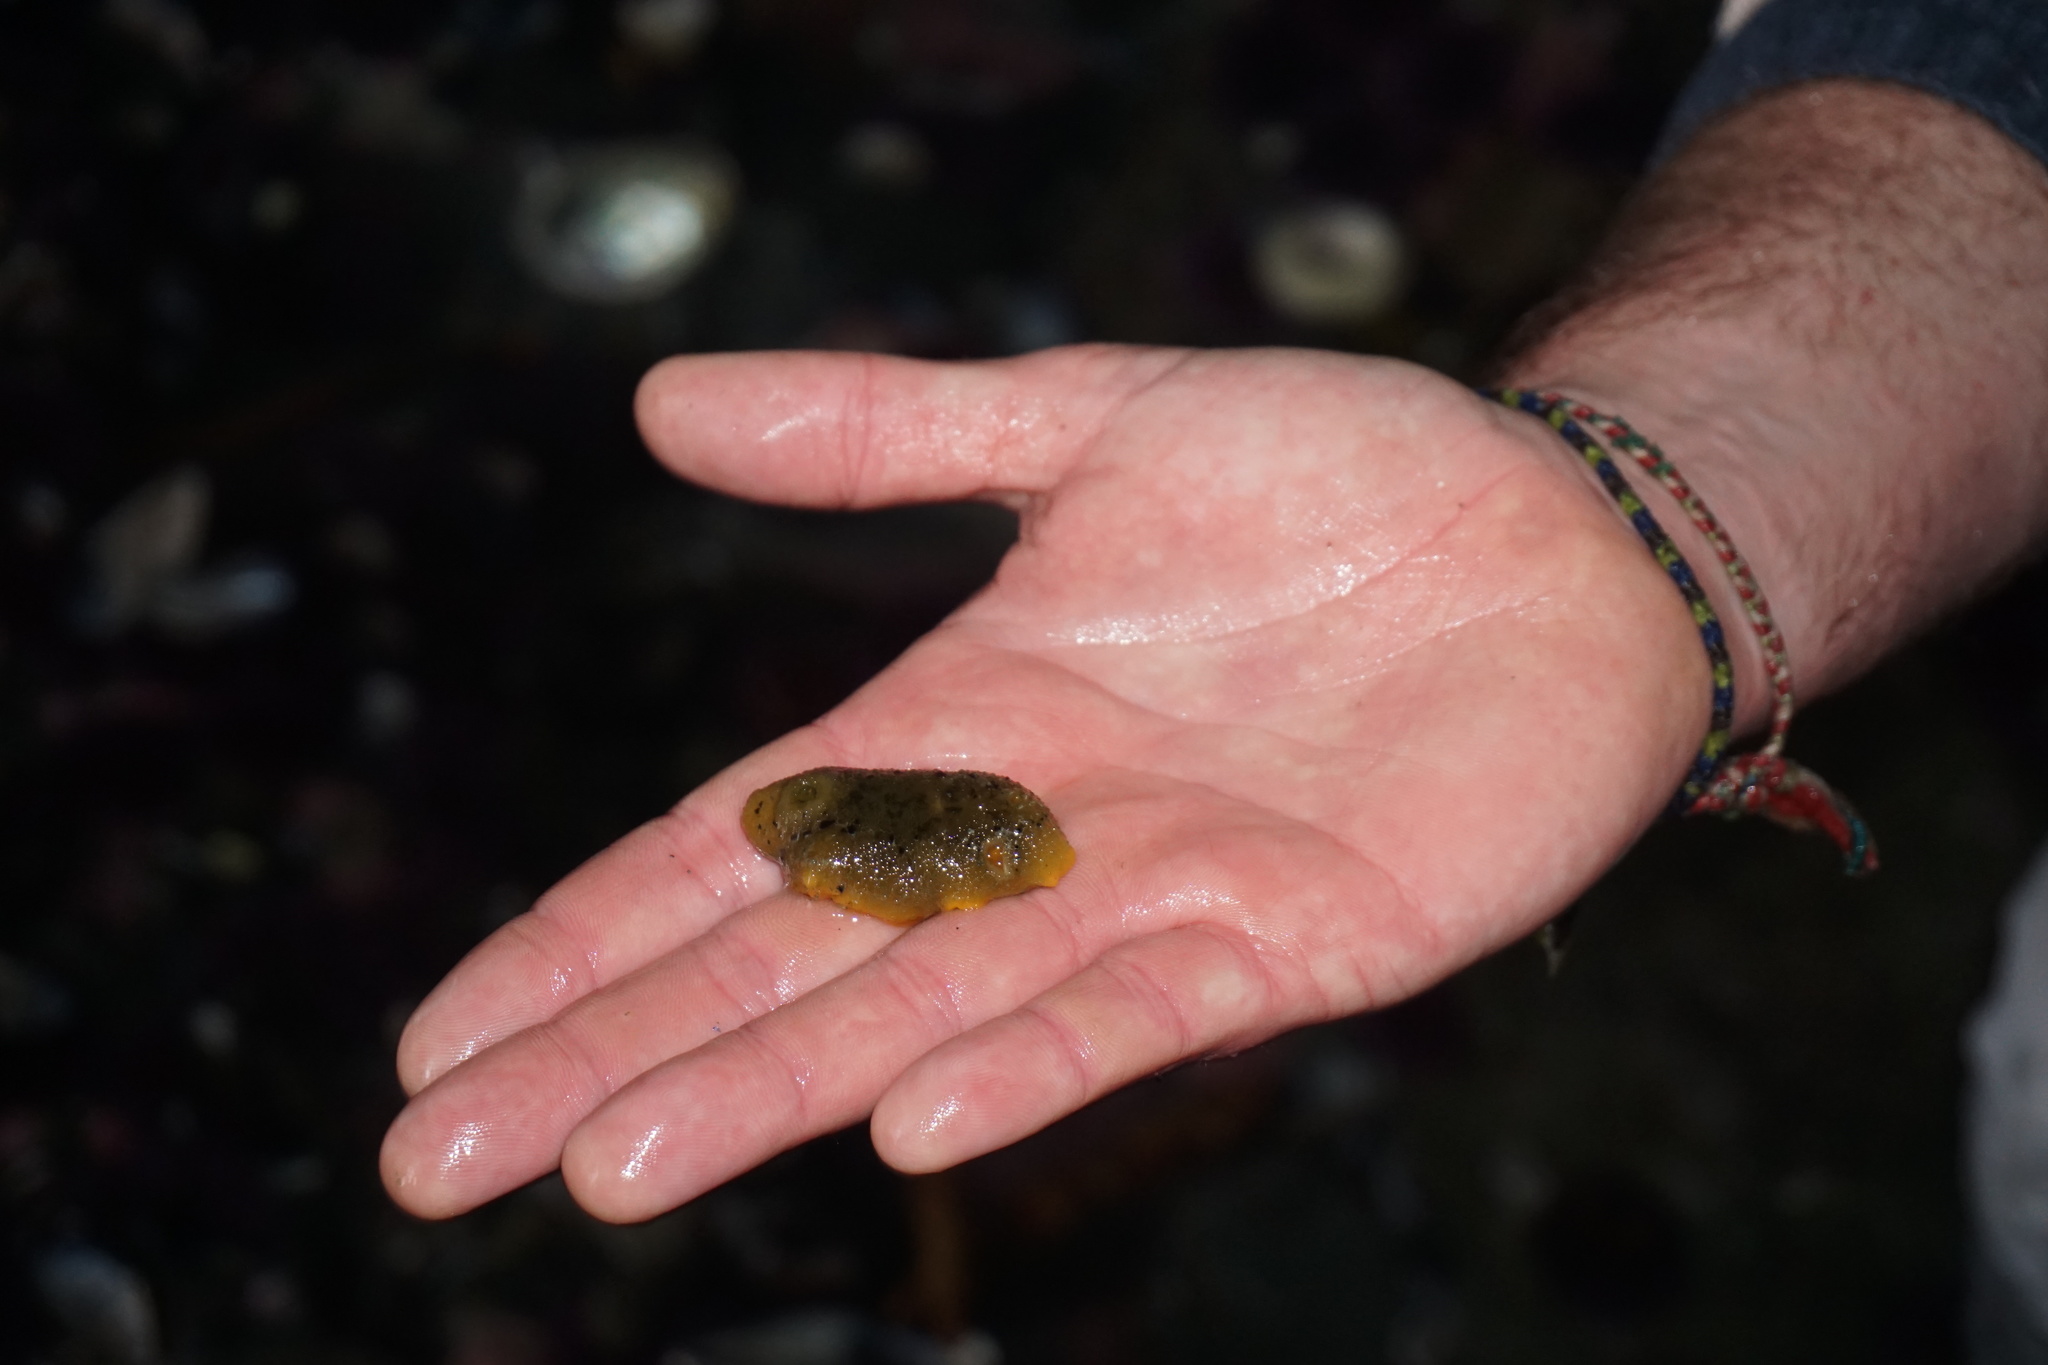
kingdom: Animalia
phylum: Mollusca
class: Gastropoda
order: Nudibranchia
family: Dorididae
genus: Doris
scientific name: Doris montereyensis
